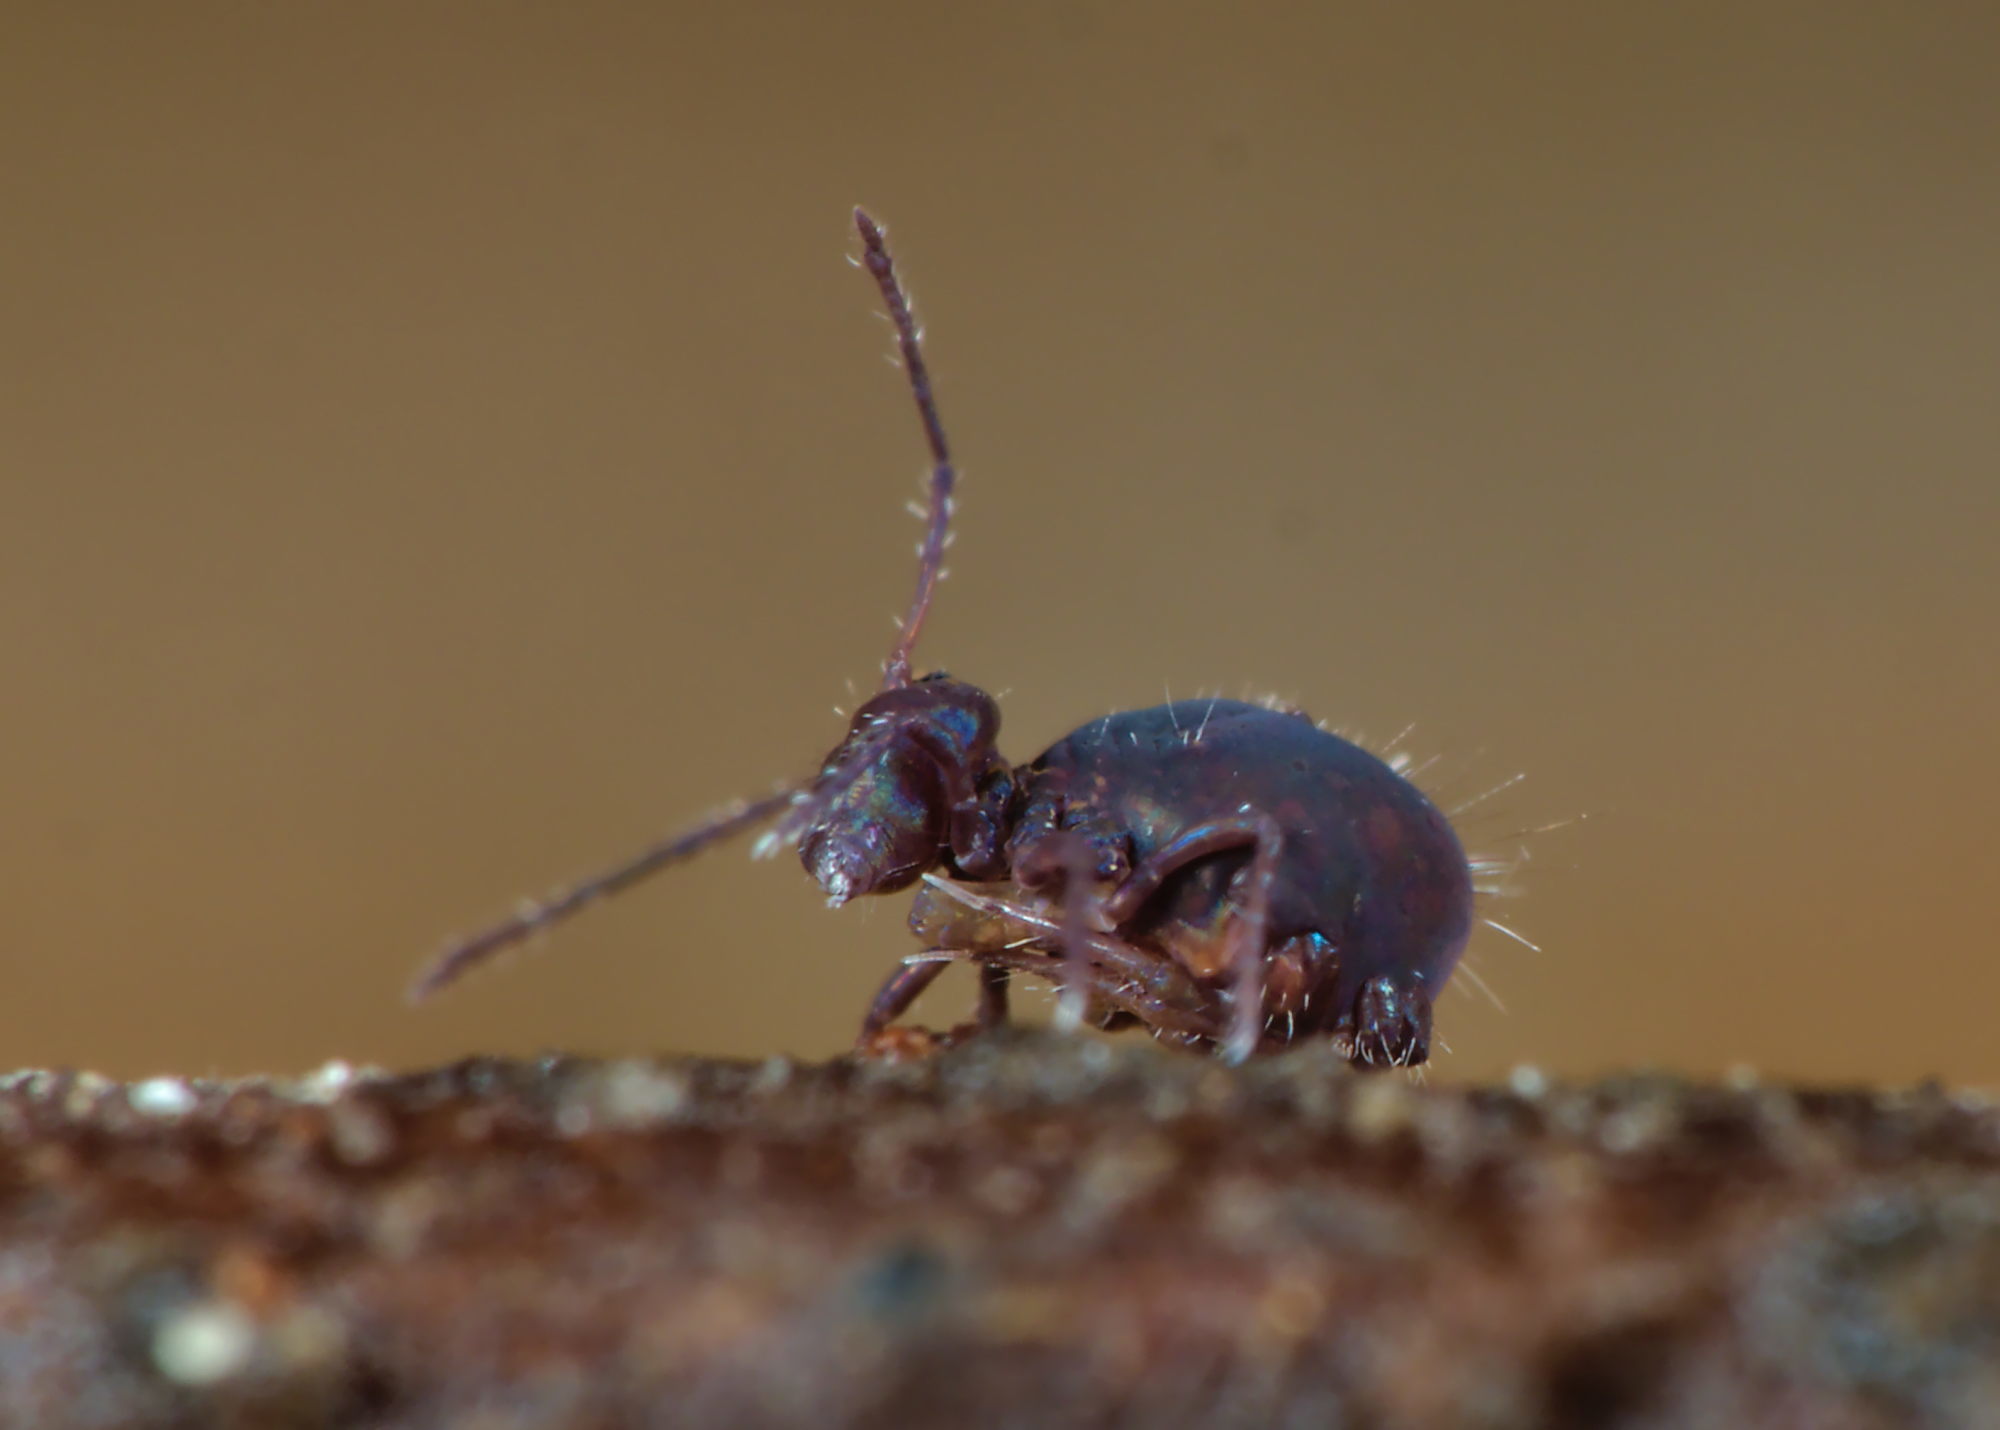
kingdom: Animalia
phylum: Arthropoda
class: Collembola
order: Symphypleona
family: Dicyrtomidae
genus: Dicyrtoma
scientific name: Dicyrtoma fusca
